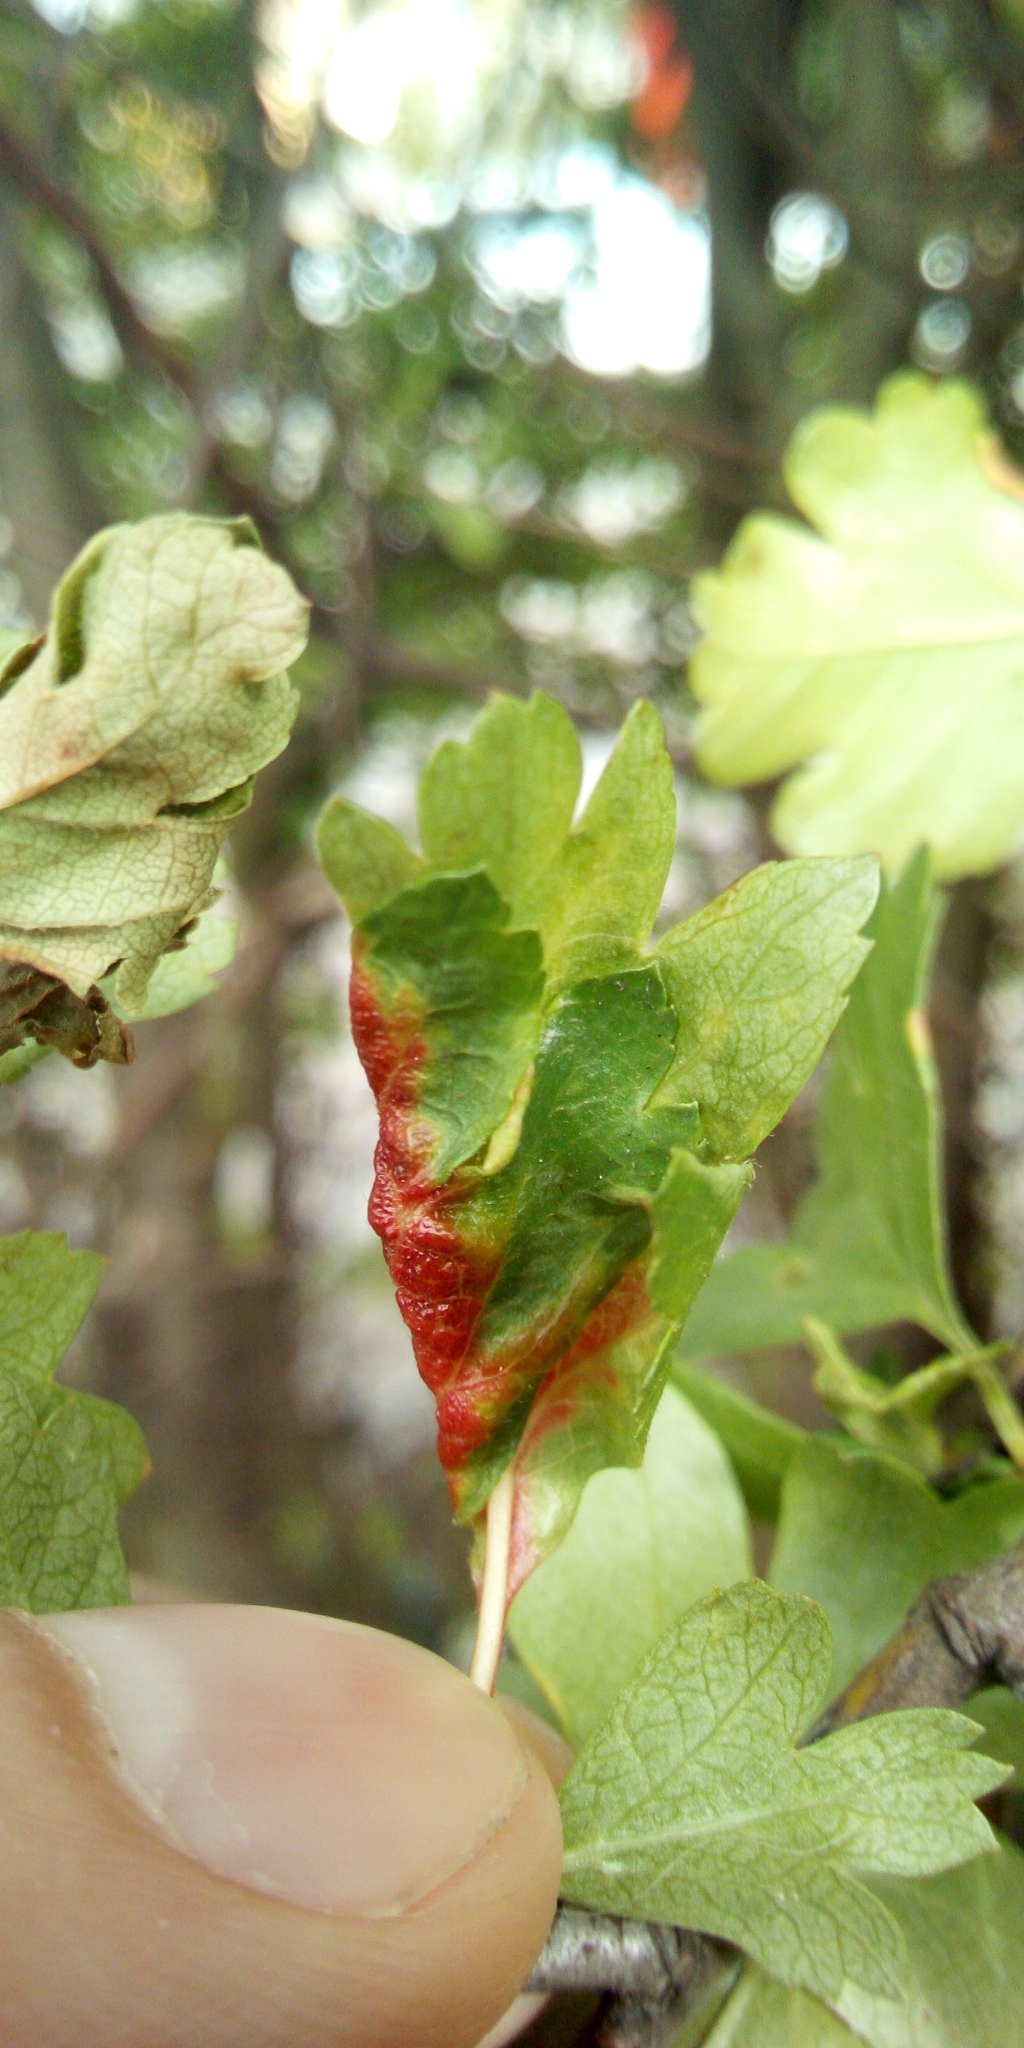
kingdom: Animalia
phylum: Arthropoda
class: Insecta
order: Hemiptera
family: Aphididae
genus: Dysaphis
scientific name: Dysaphis crataegi
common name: Aphid
